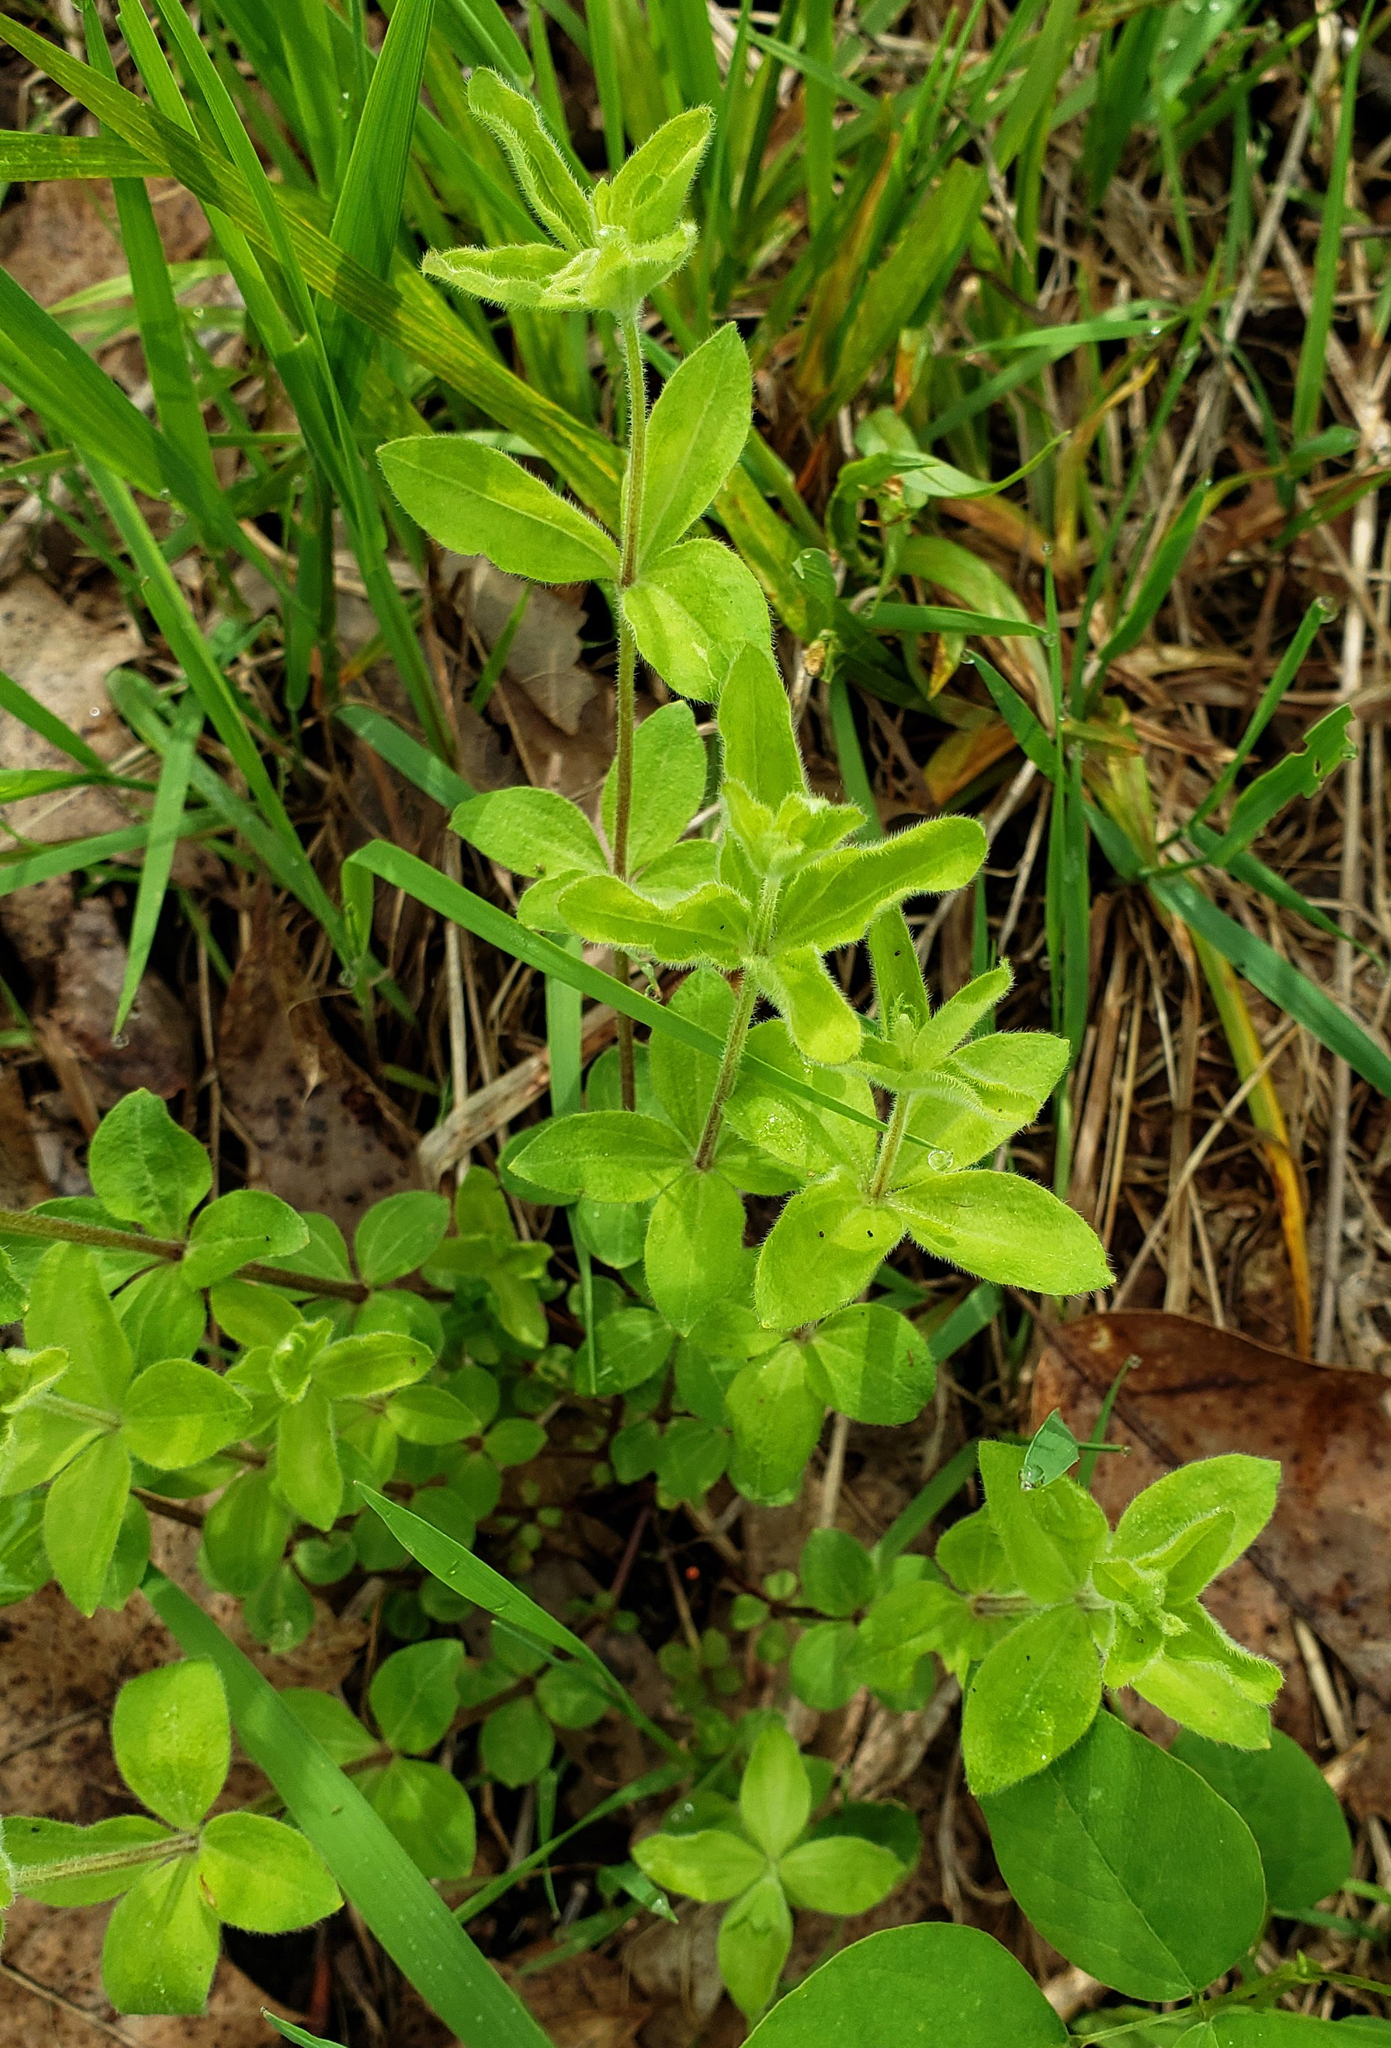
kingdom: Plantae
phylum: Tracheophyta
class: Magnoliopsida
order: Gentianales
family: Rubiaceae
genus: Galium
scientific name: Galium circaezans
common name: Forest bedstraw
